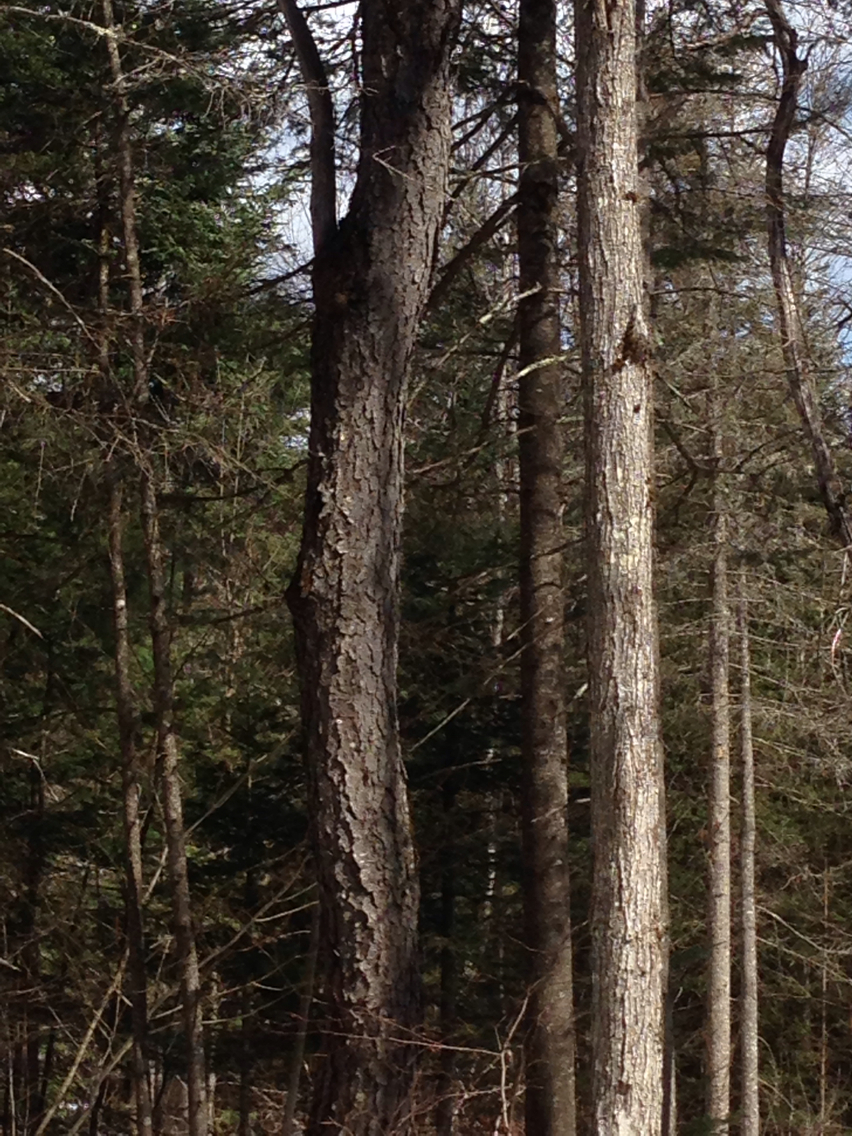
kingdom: Plantae
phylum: Tracheophyta
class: Magnoliopsida
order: Rosales
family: Rosaceae
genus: Prunus
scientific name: Prunus serotina
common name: Black cherry
